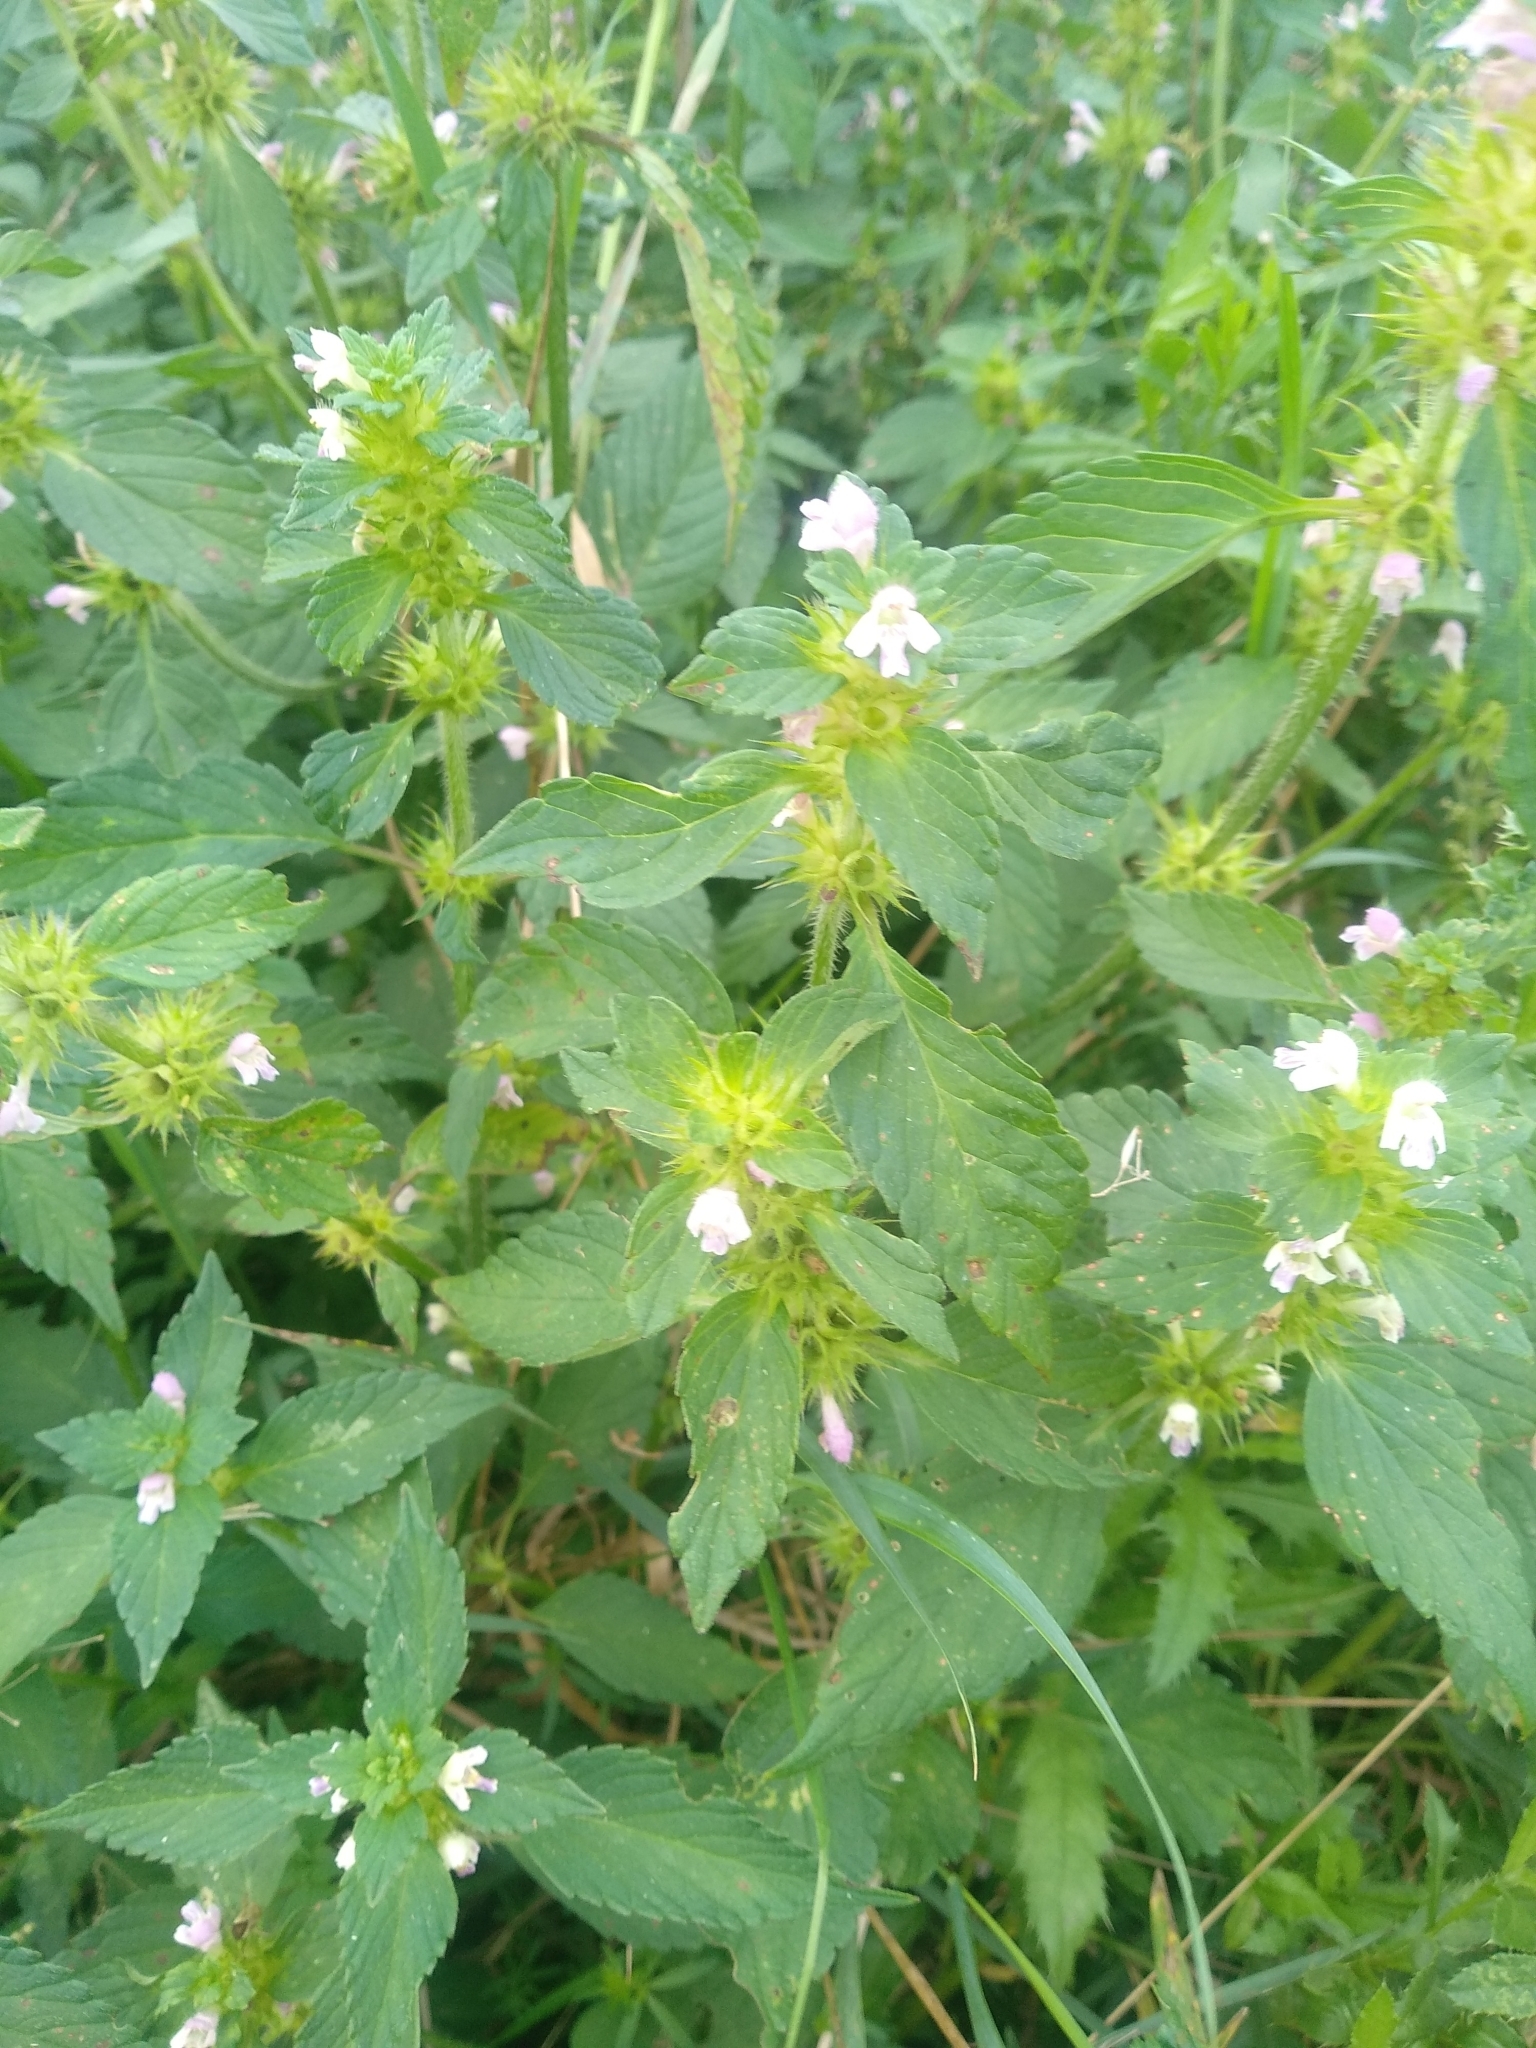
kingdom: Plantae
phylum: Tracheophyta
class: Magnoliopsida
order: Lamiales
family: Lamiaceae
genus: Galeopsis
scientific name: Galeopsis bifida
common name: Bifid hemp-nettle
